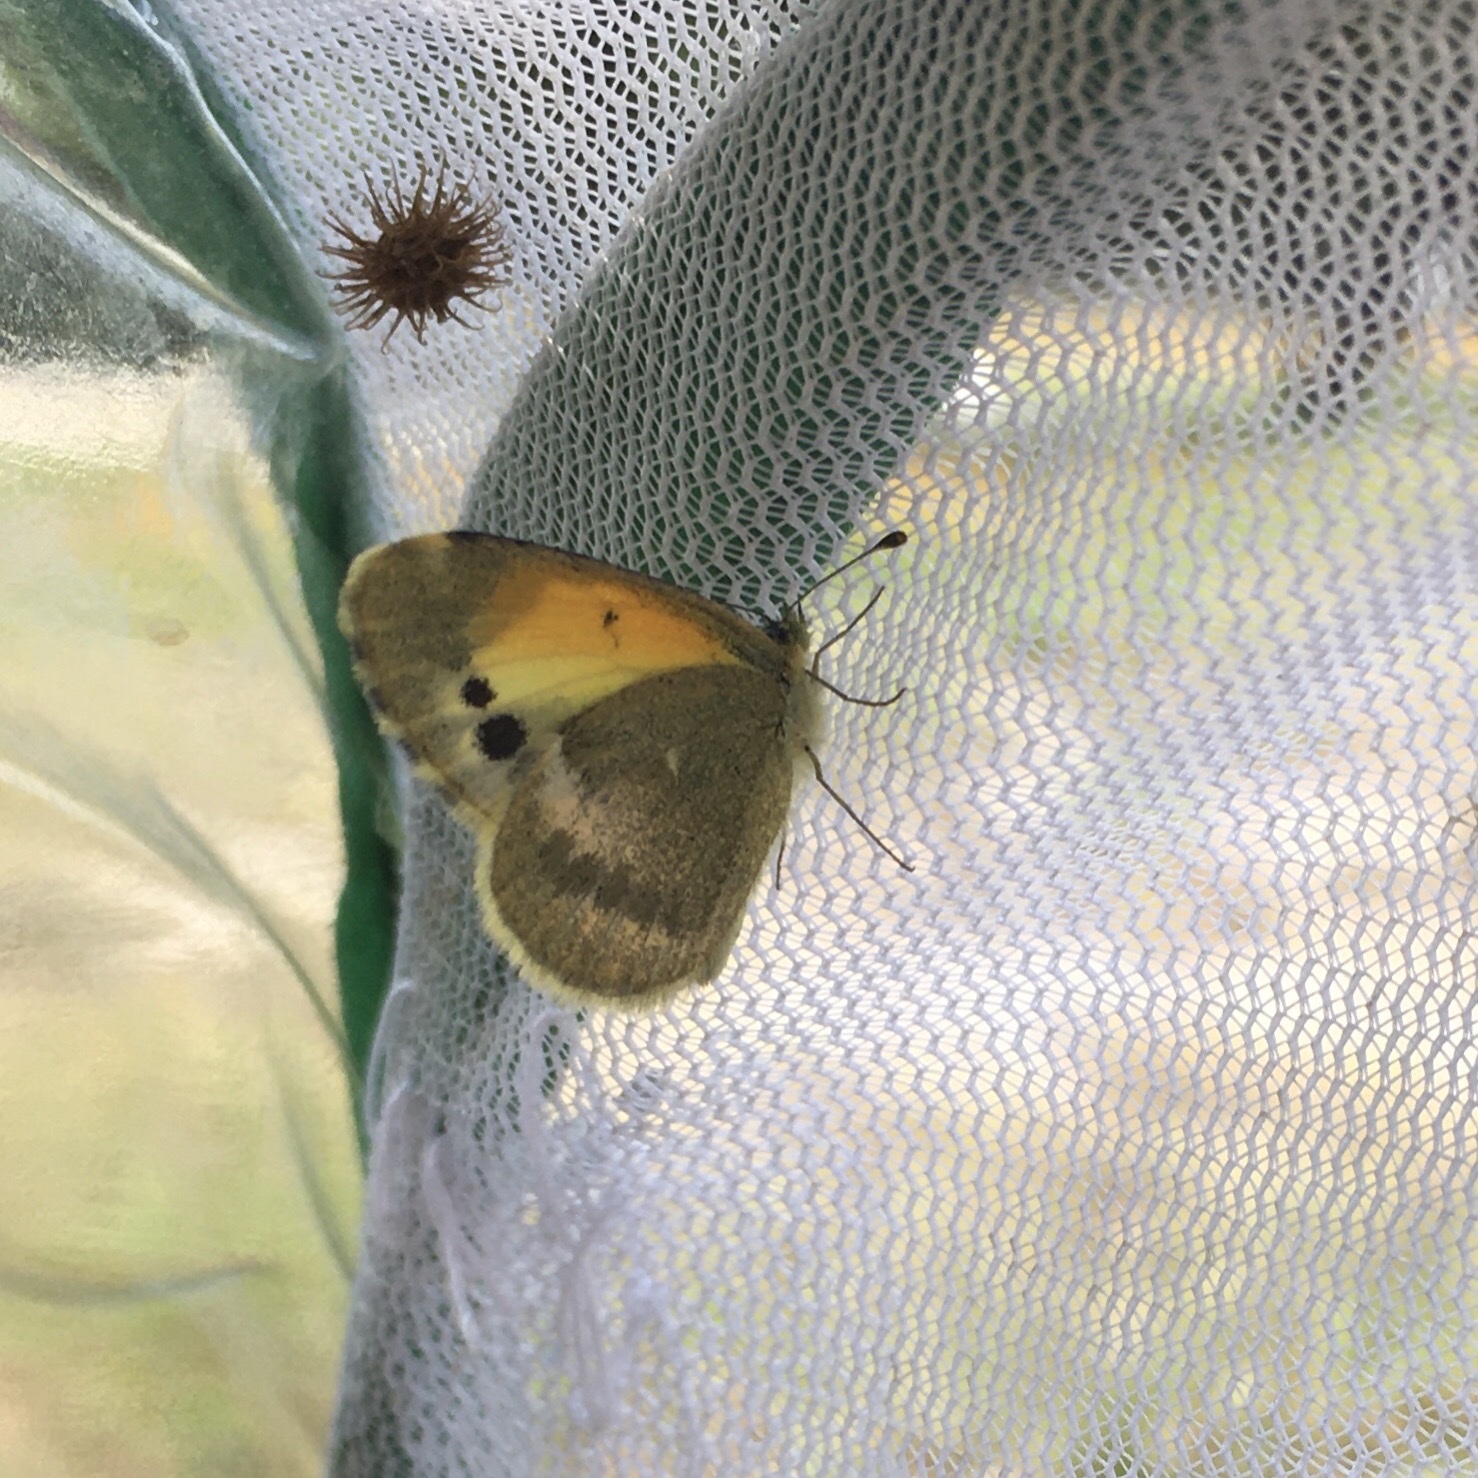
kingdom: Animalia
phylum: Arthropoda
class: Insecta
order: Lepidoptera
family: Pieridae
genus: Nathalis
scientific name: Nathalis iole
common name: Dainty sulphur
